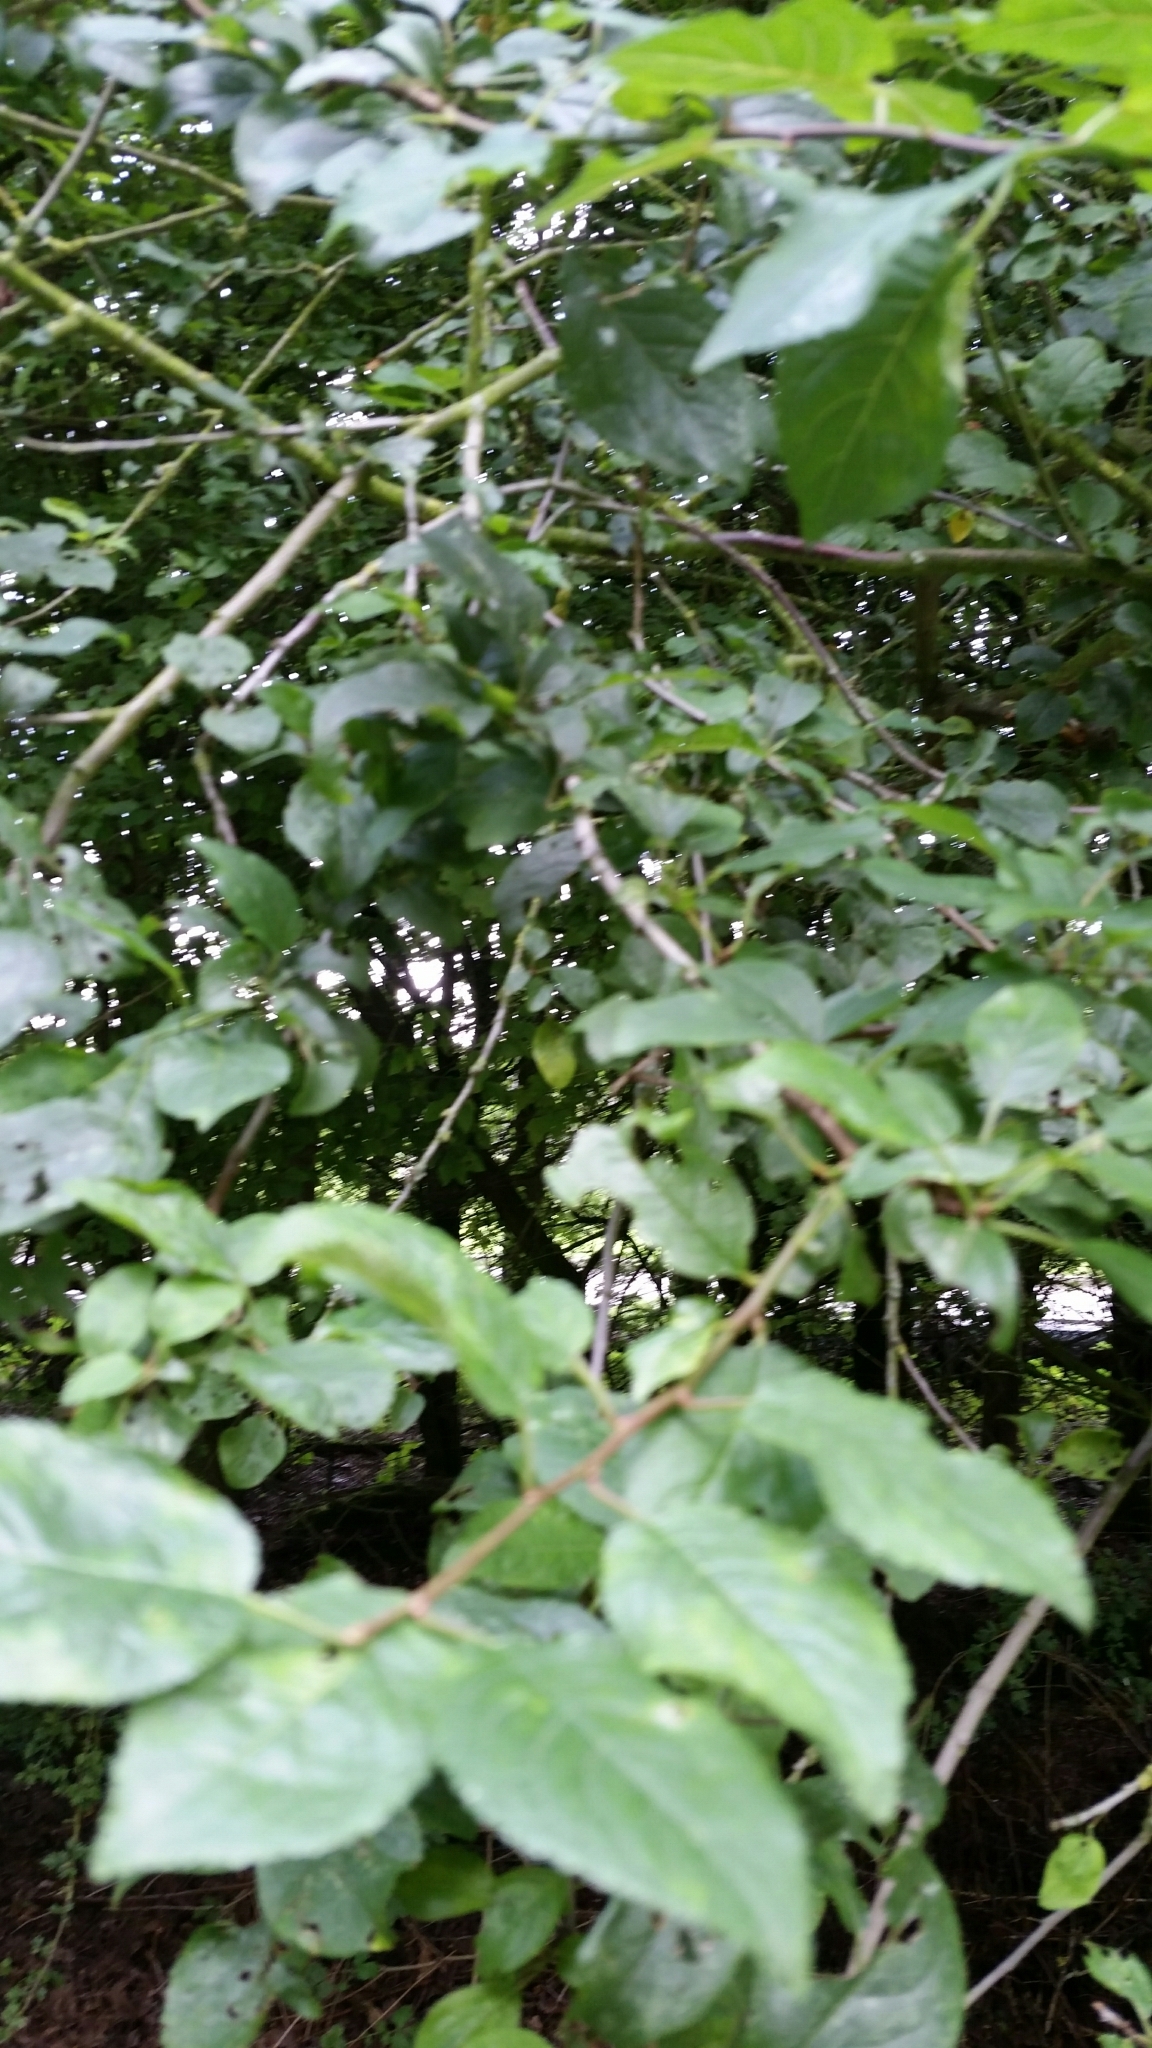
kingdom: Plantae
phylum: Tracheophyta
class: Magnoliopsida
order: Rosales
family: Rosaceae
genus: Prunus
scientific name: Prunus cerasifera
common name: Cherry plum
